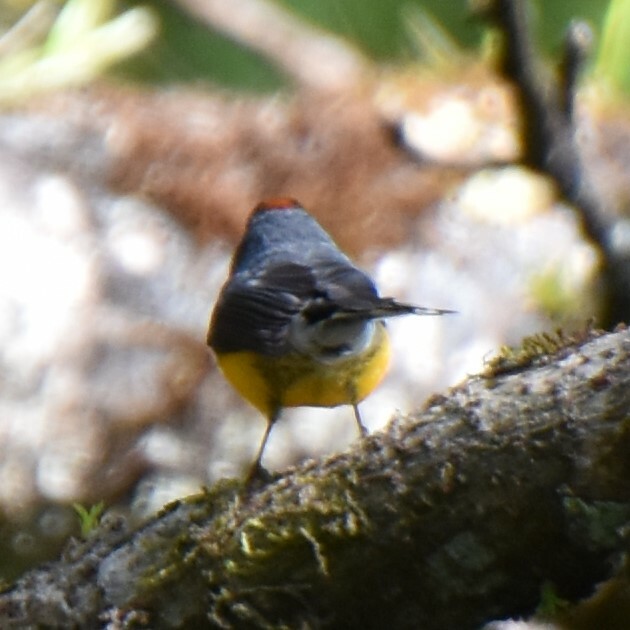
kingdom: Animalia
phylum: Chordata
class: Aves
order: Passeriformes
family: Parulidae
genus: Myioborus
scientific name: Myioborus miniatus
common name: Slate-throated redstart
